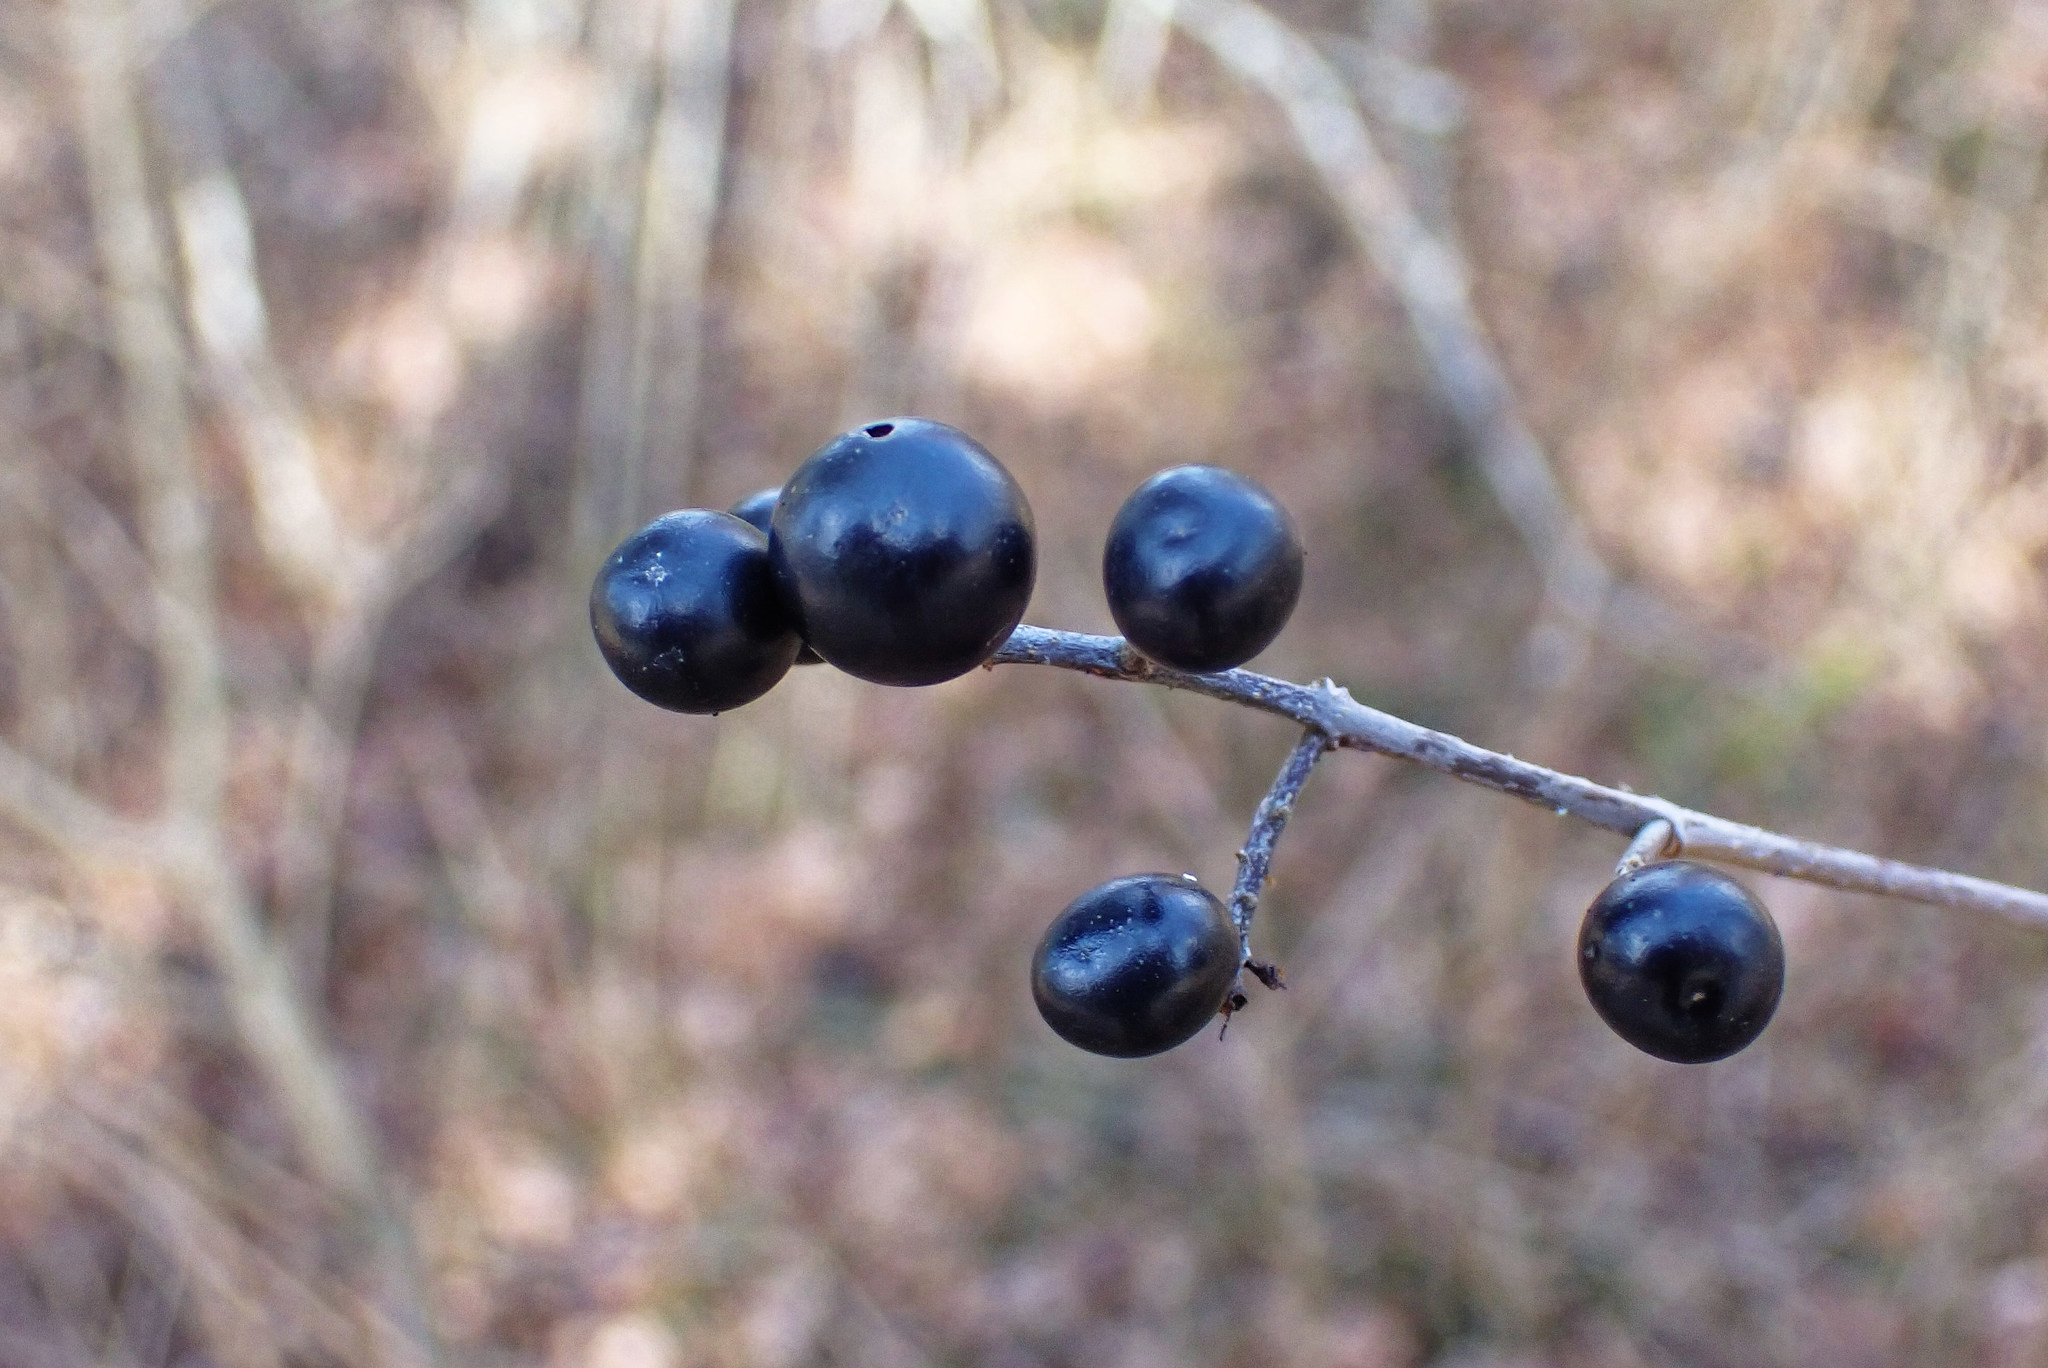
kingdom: Plantae
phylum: Tracheophyta
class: Magnoliopsida
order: Lamiales
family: Oleaceae
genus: Ligustrum
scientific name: Ligustrum vulgare
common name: Wild privet
